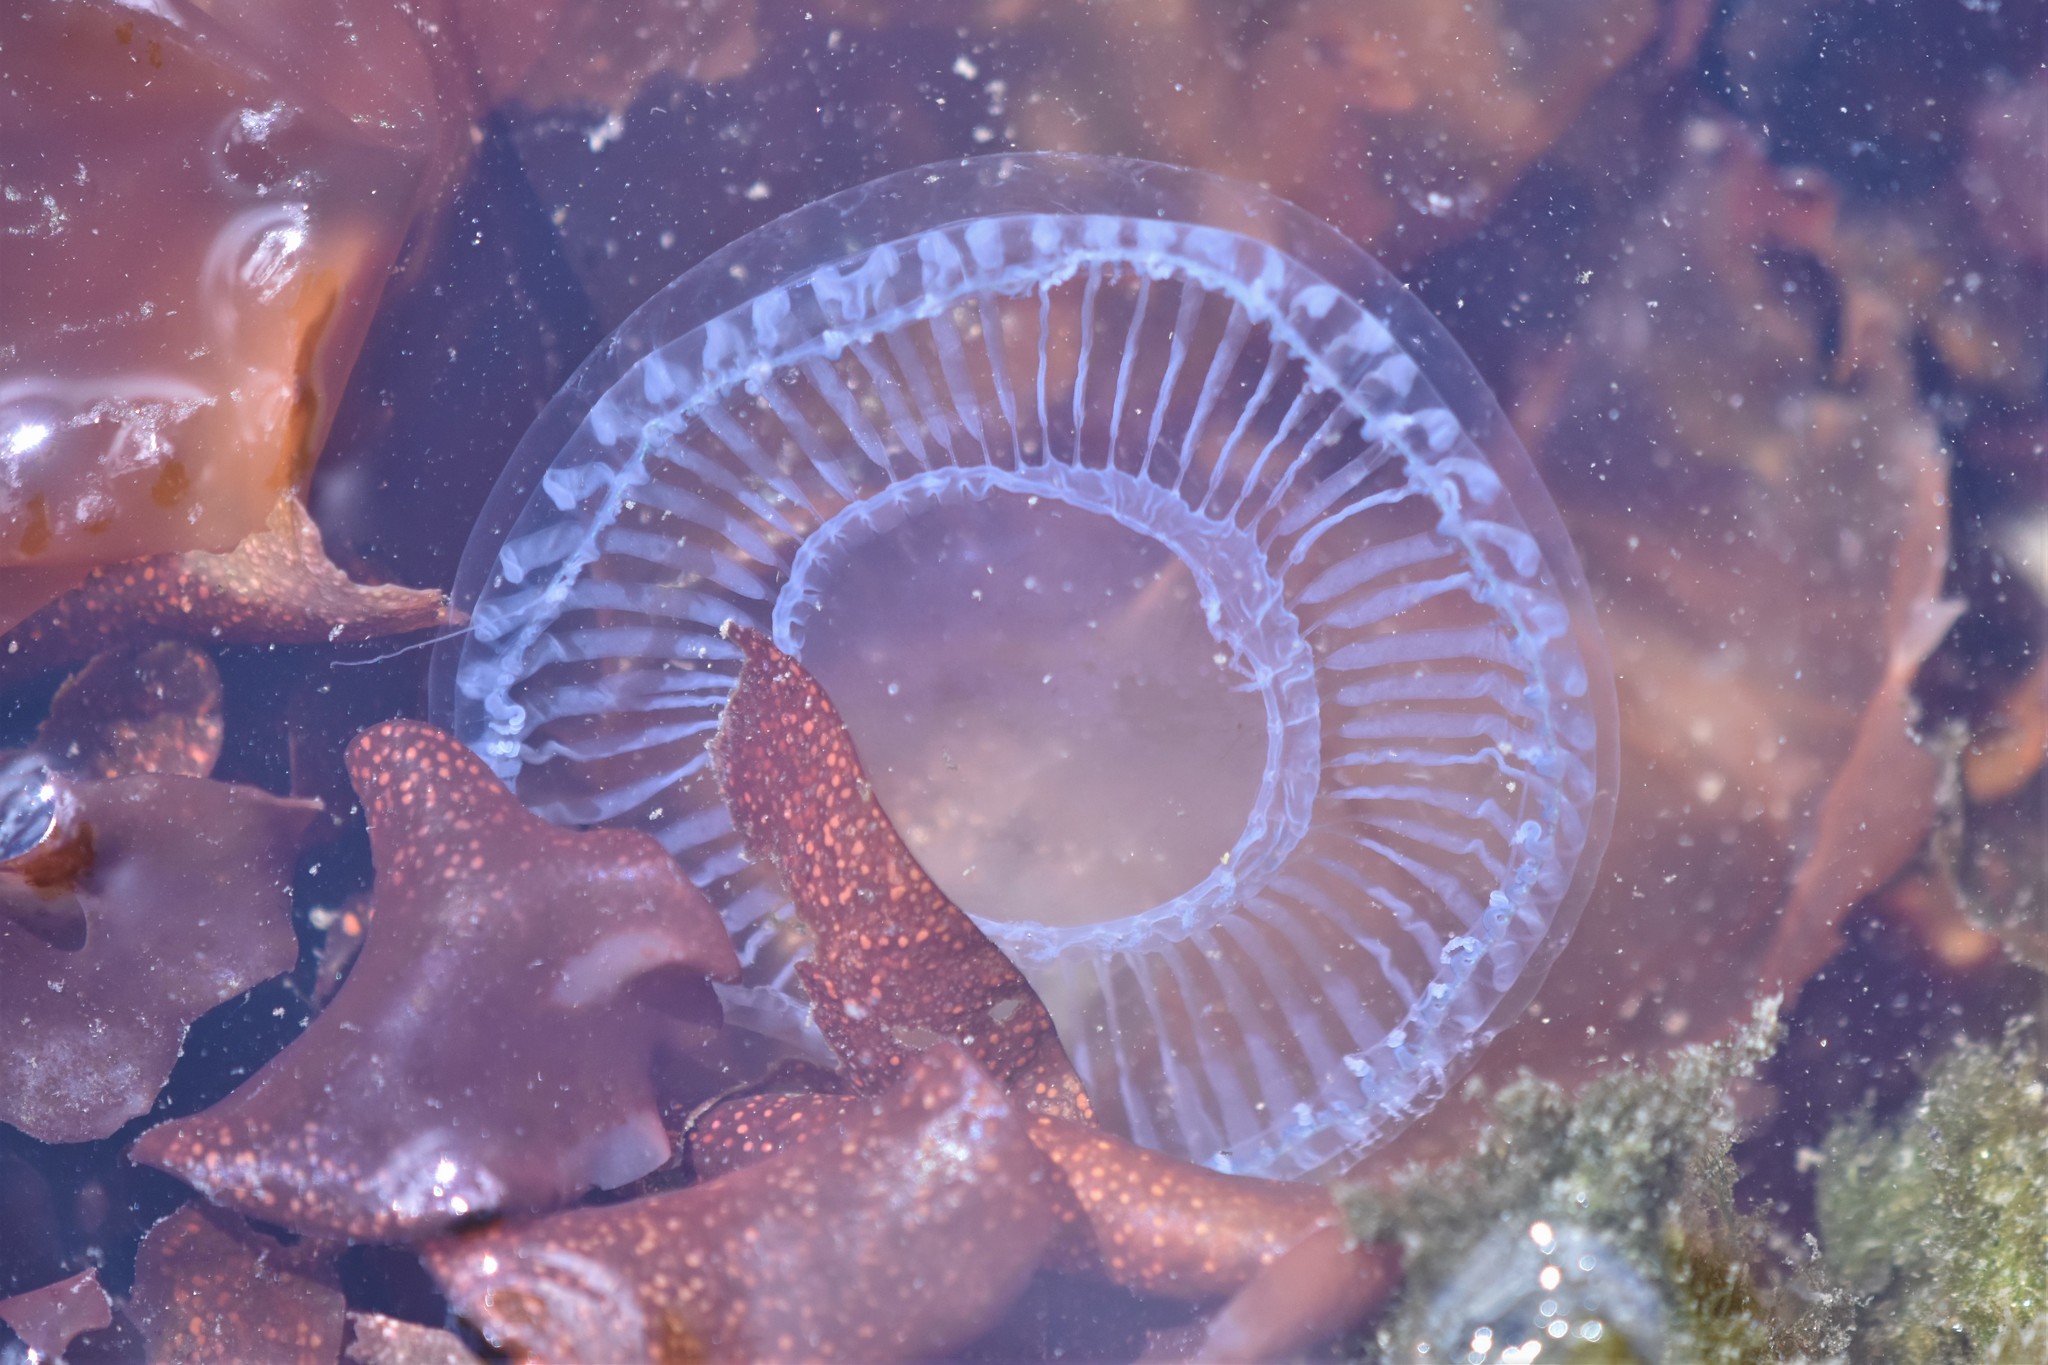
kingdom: Animalia
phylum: Cnidaria
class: Hydrozoa
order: Leptothecata
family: Aequoreidae
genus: Aequorea
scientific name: Aequorea victoria
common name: Water jellyfish
